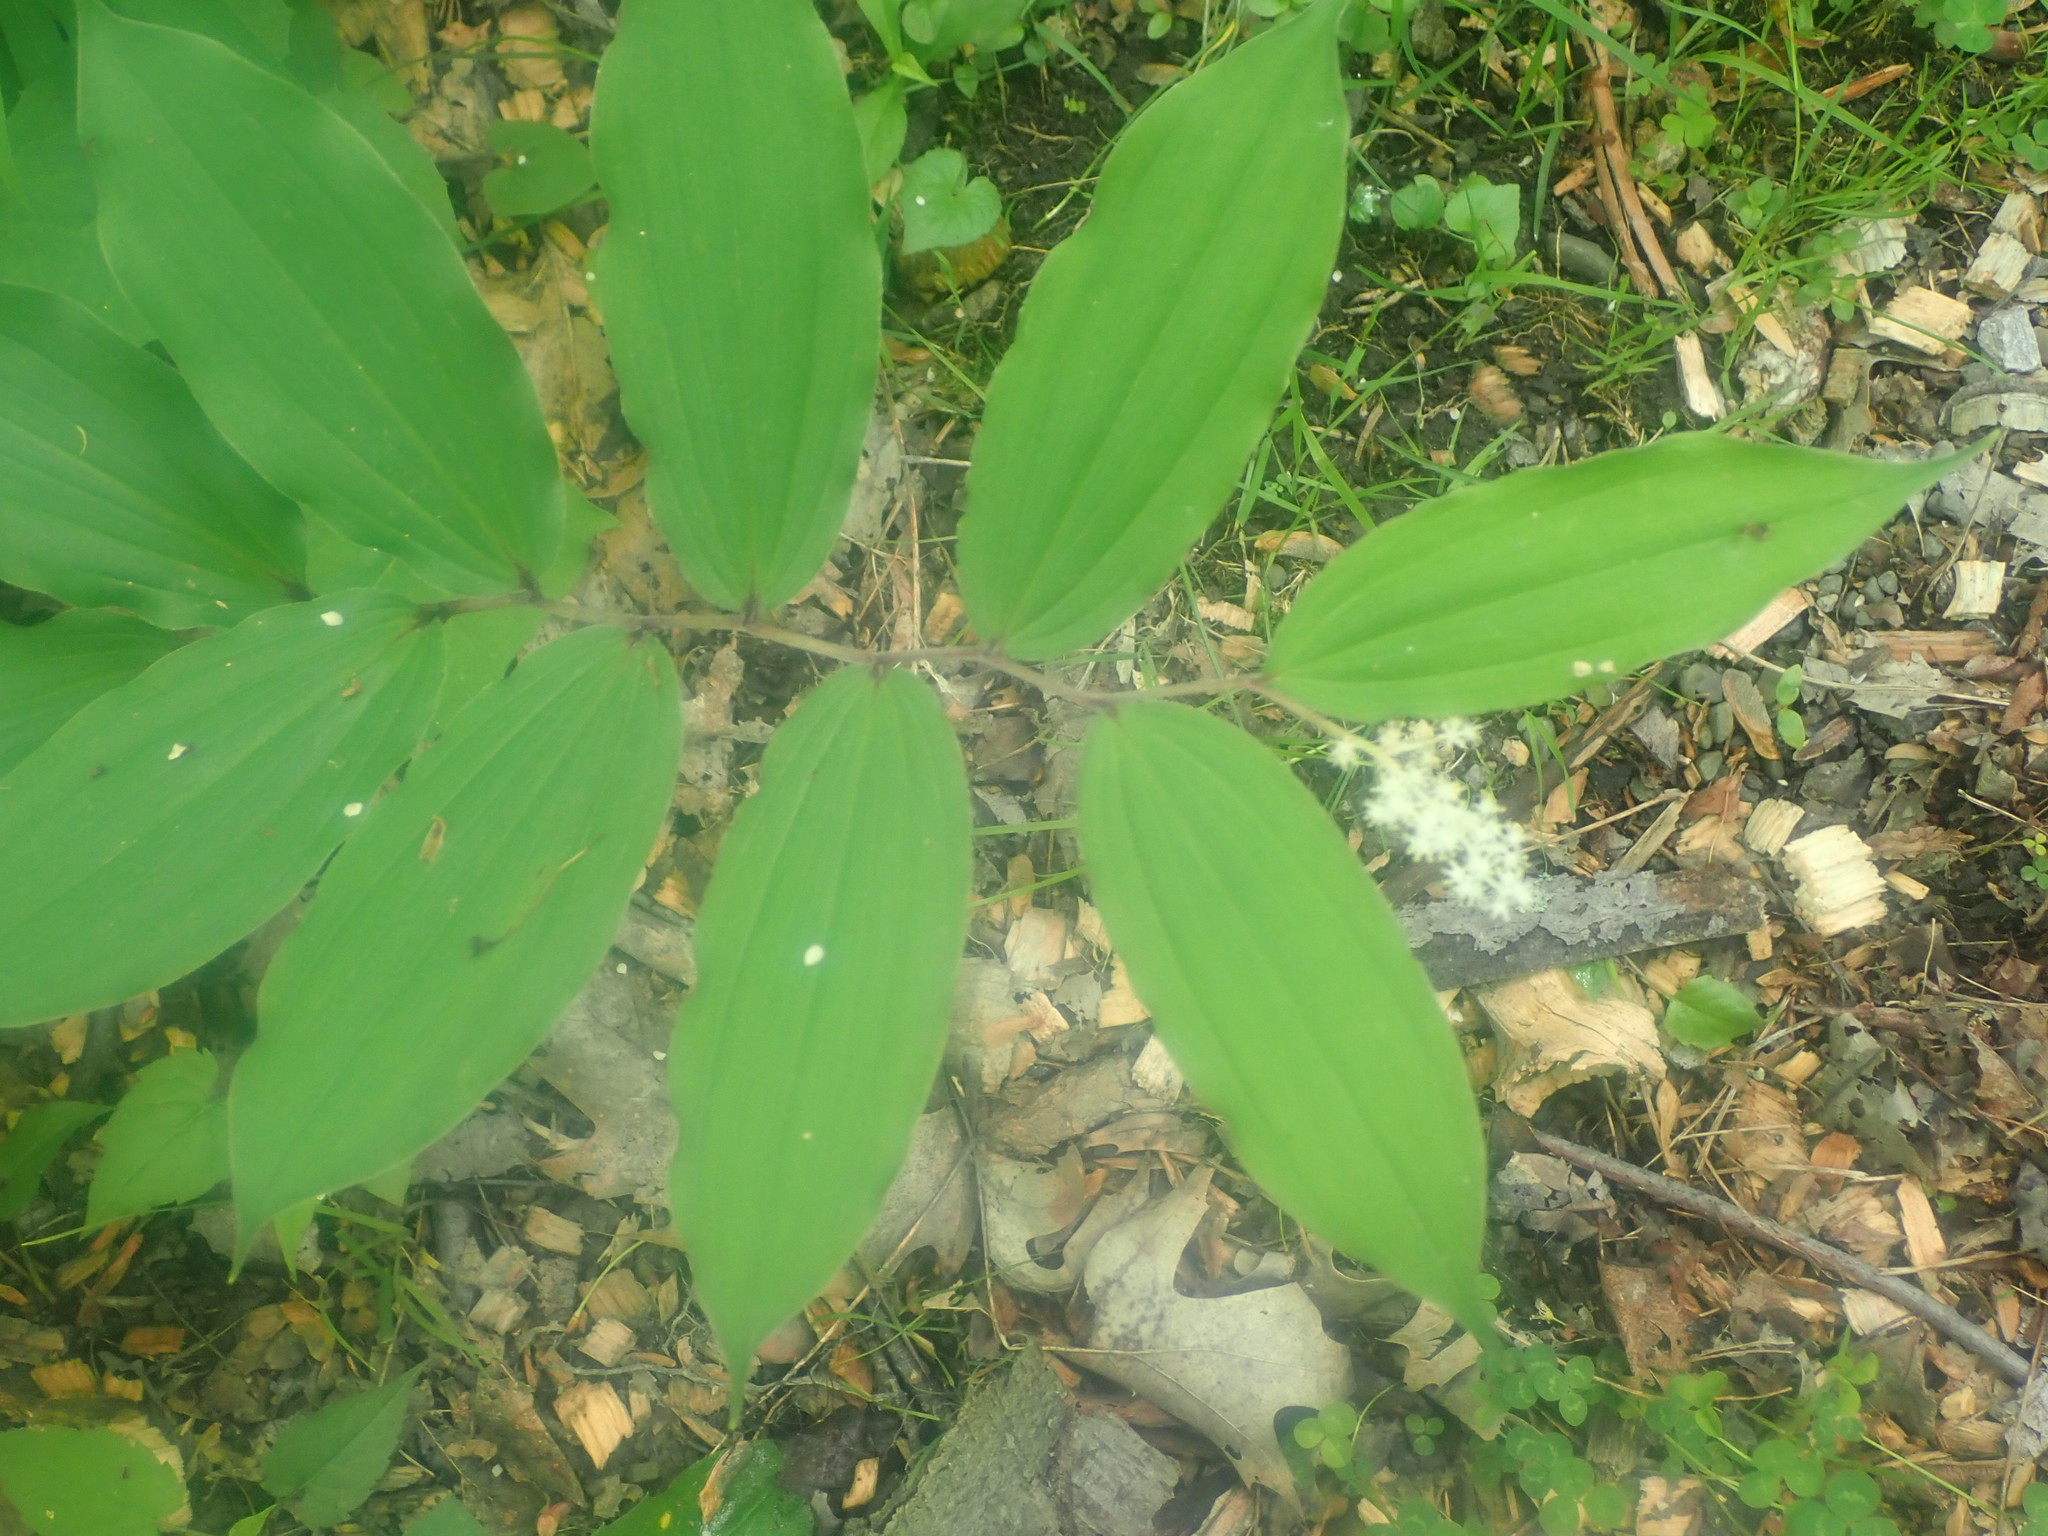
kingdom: Plantae
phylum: Tracheophyta
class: Liliopsida
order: Asparagales
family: Asparagaceae
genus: Maianthemum
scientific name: Maianthemum racemosum
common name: False spikenard
